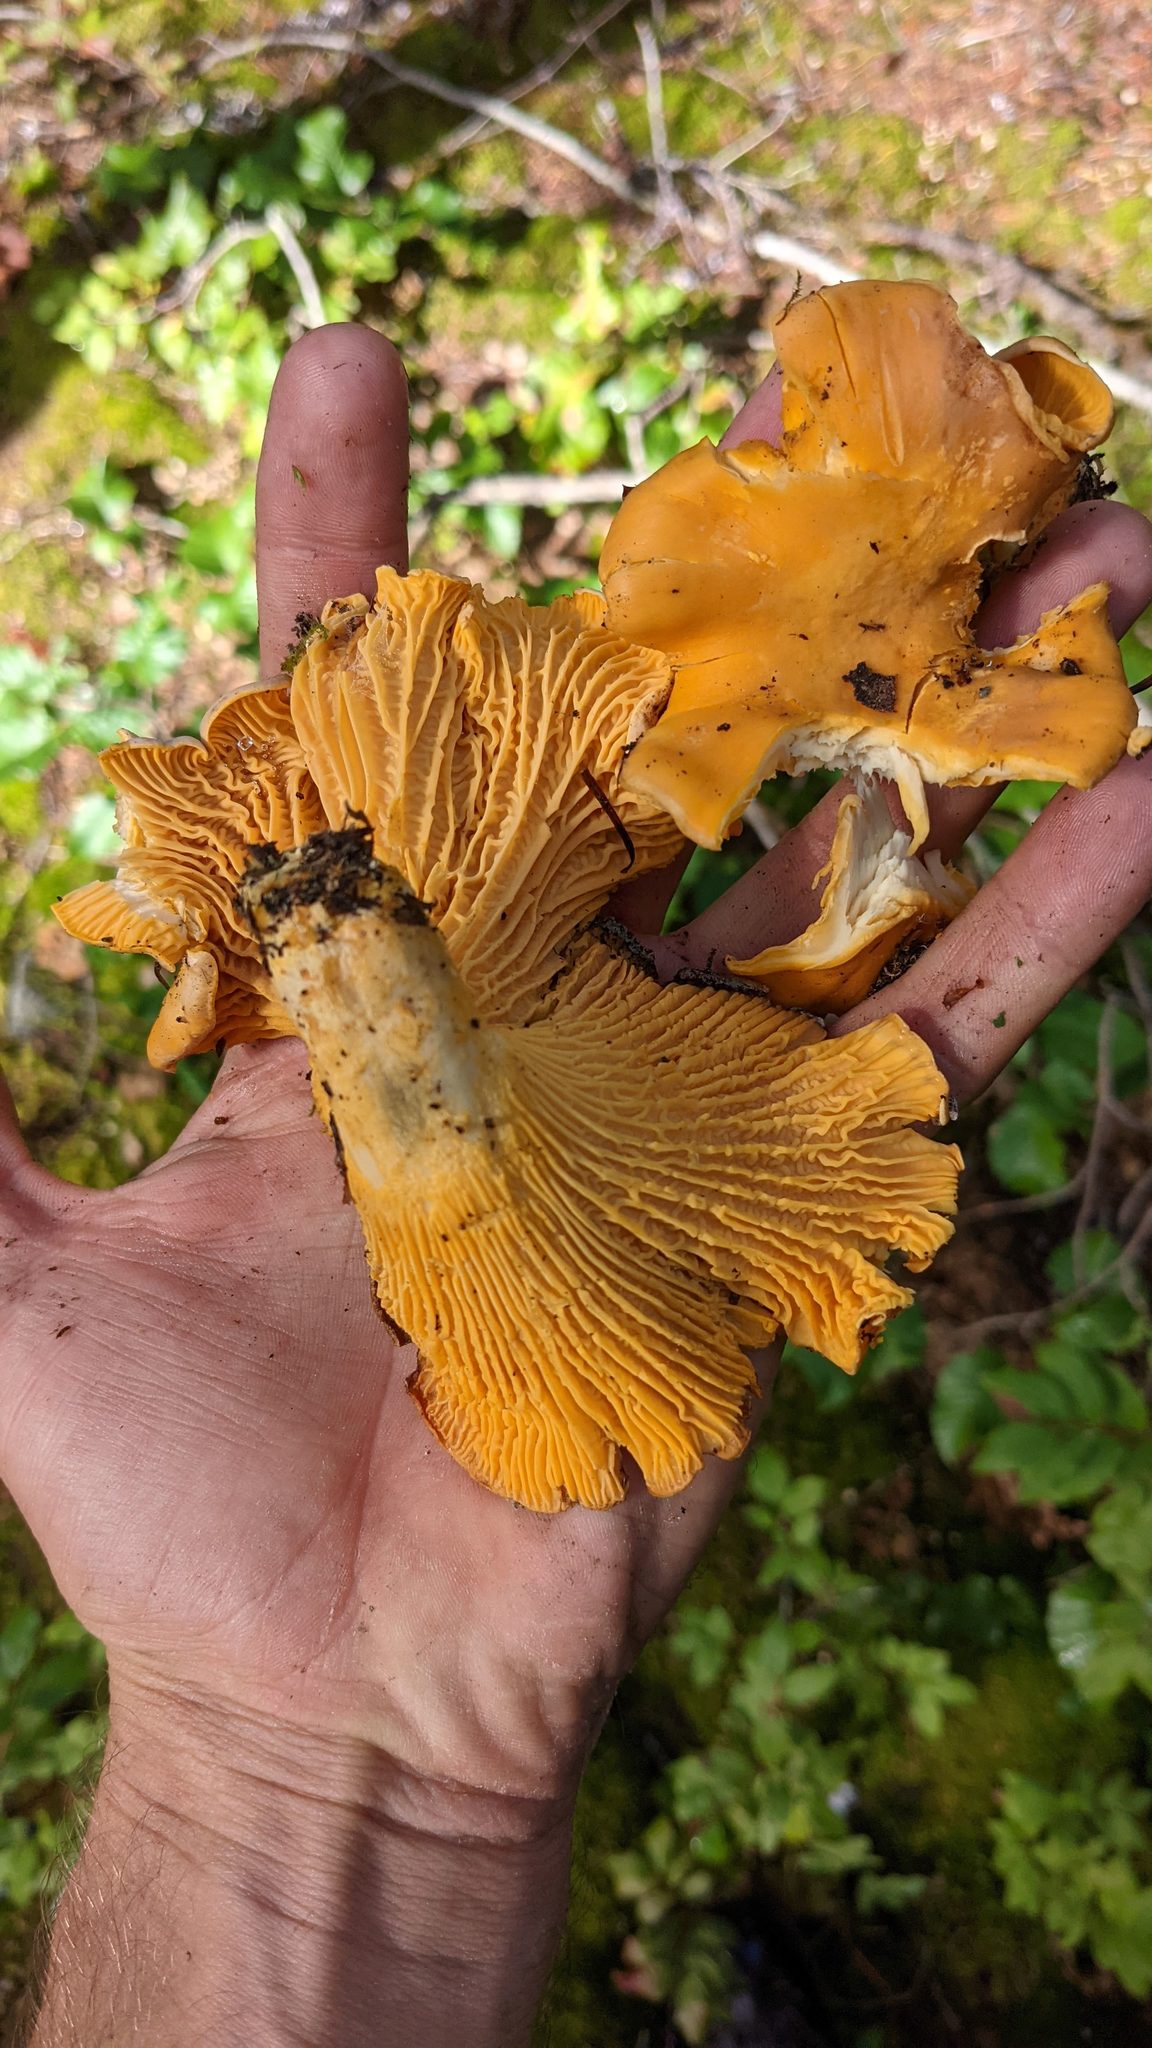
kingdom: Fungi
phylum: Basidiomycota
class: Agaricomycetes
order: Cantharellales
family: Hydnaceae
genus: Cantharellus
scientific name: Cantharellus formosus
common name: Pacific golden chanterelle
